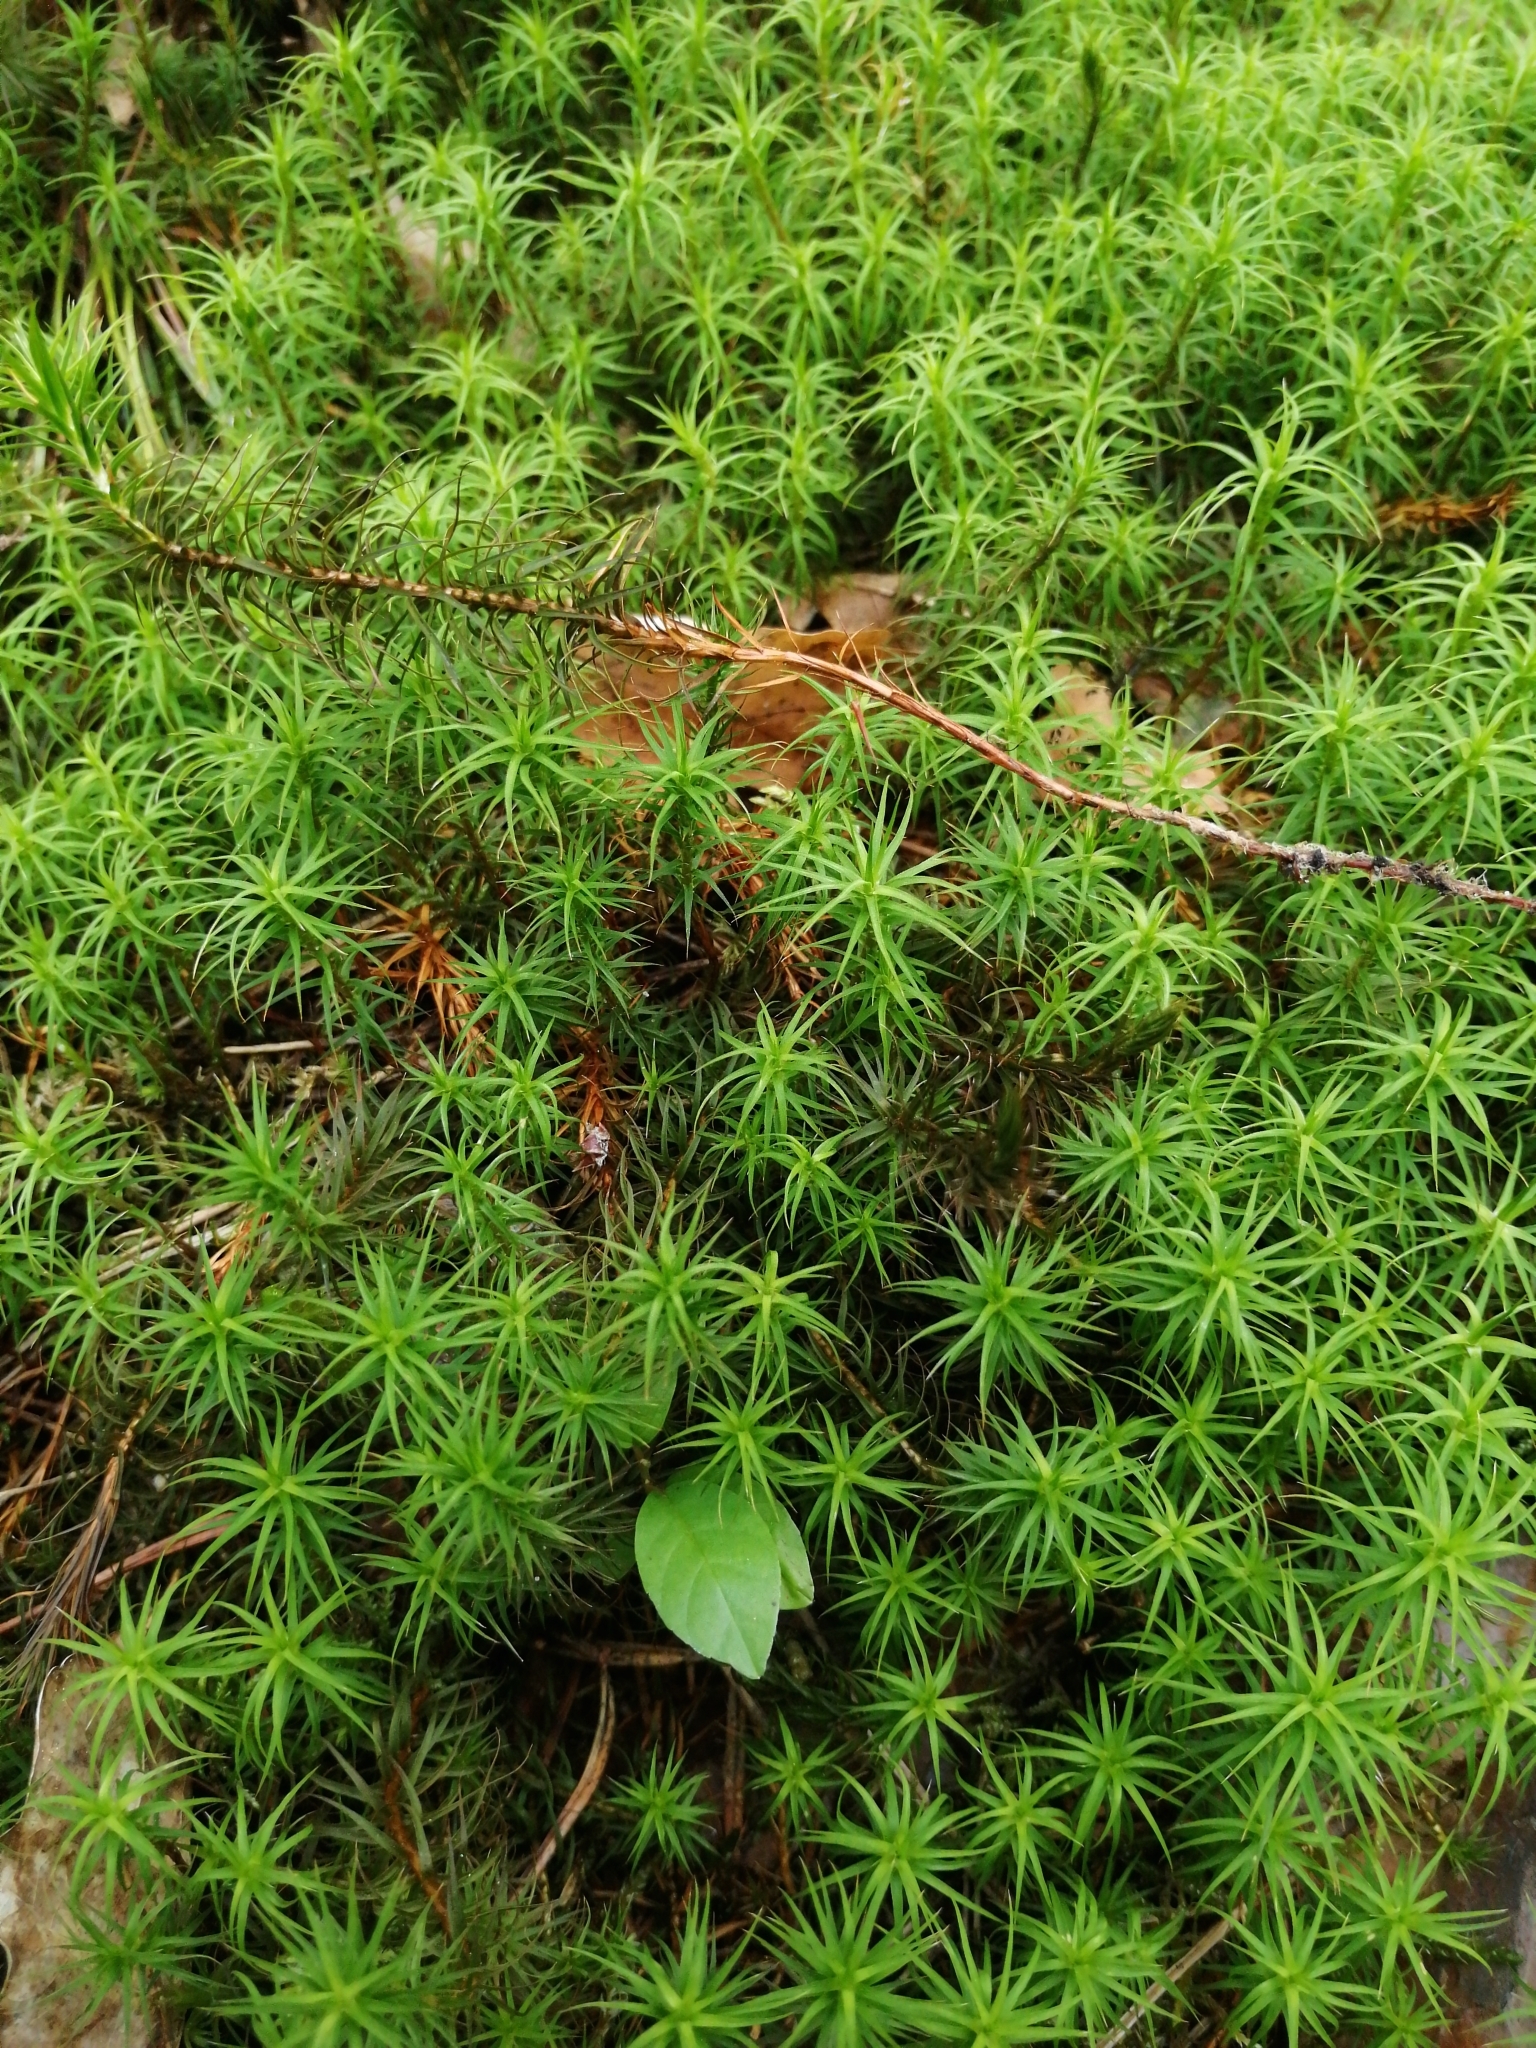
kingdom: Plantae
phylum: Bryophyta
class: Polytrichopsida
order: Polytrichales
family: Polytrichaceae
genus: Polytrichum
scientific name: Polytrichum formosum
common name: Bank haircap moss
